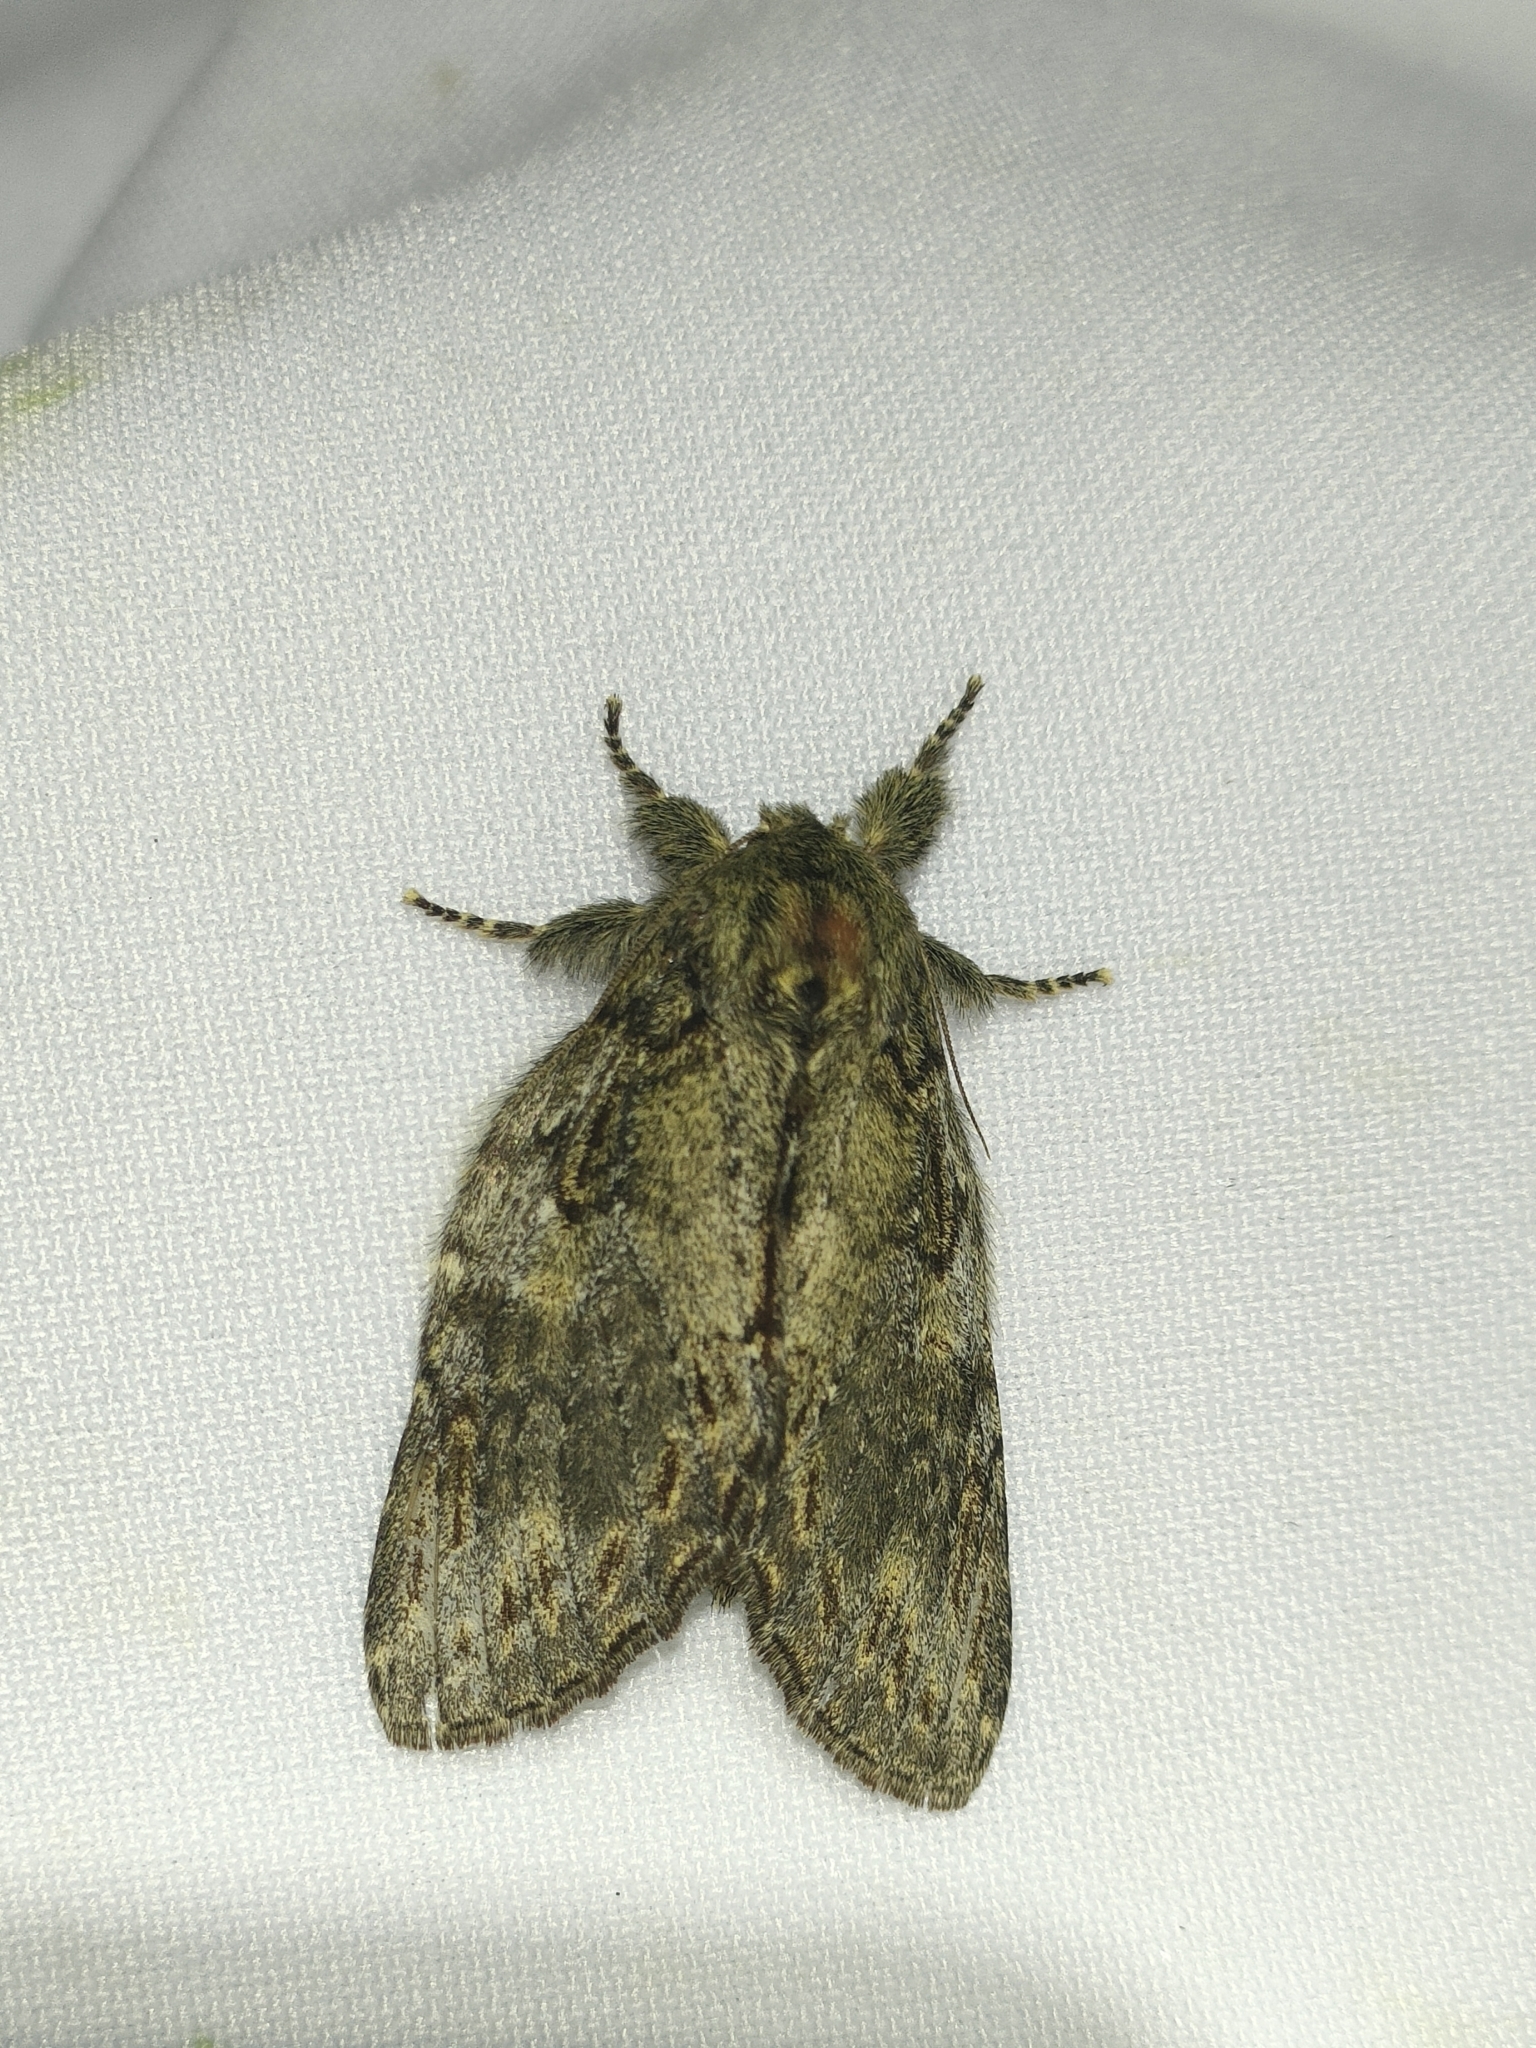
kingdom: Animalia
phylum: Arthropoda
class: Insecta
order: Lepidoptera
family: Notodontidae
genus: Peridea
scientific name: Peridea anceps
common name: Great prominent
